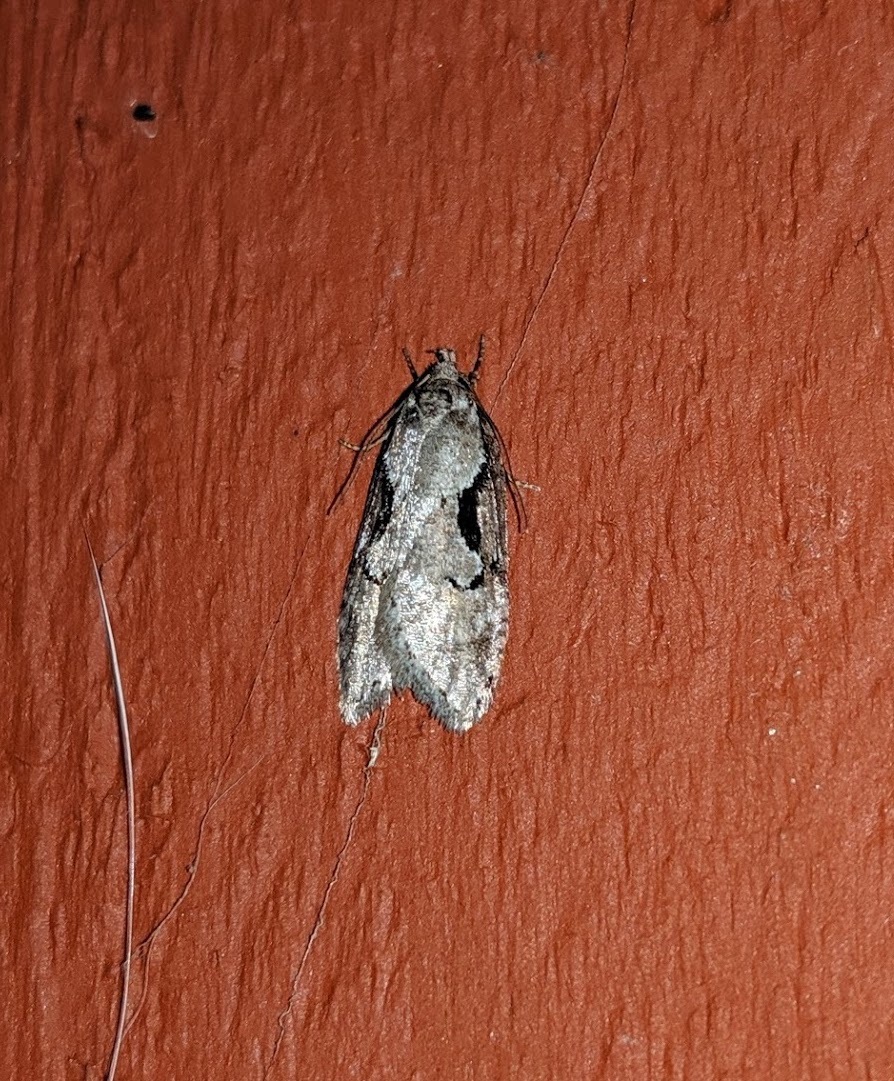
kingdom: Animalia
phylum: Arthropoda
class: Insecta
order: Lepidoptera
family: Depressariidae
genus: Semioscopis
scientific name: Semioscopis packardella
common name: Packard's concealer moth
